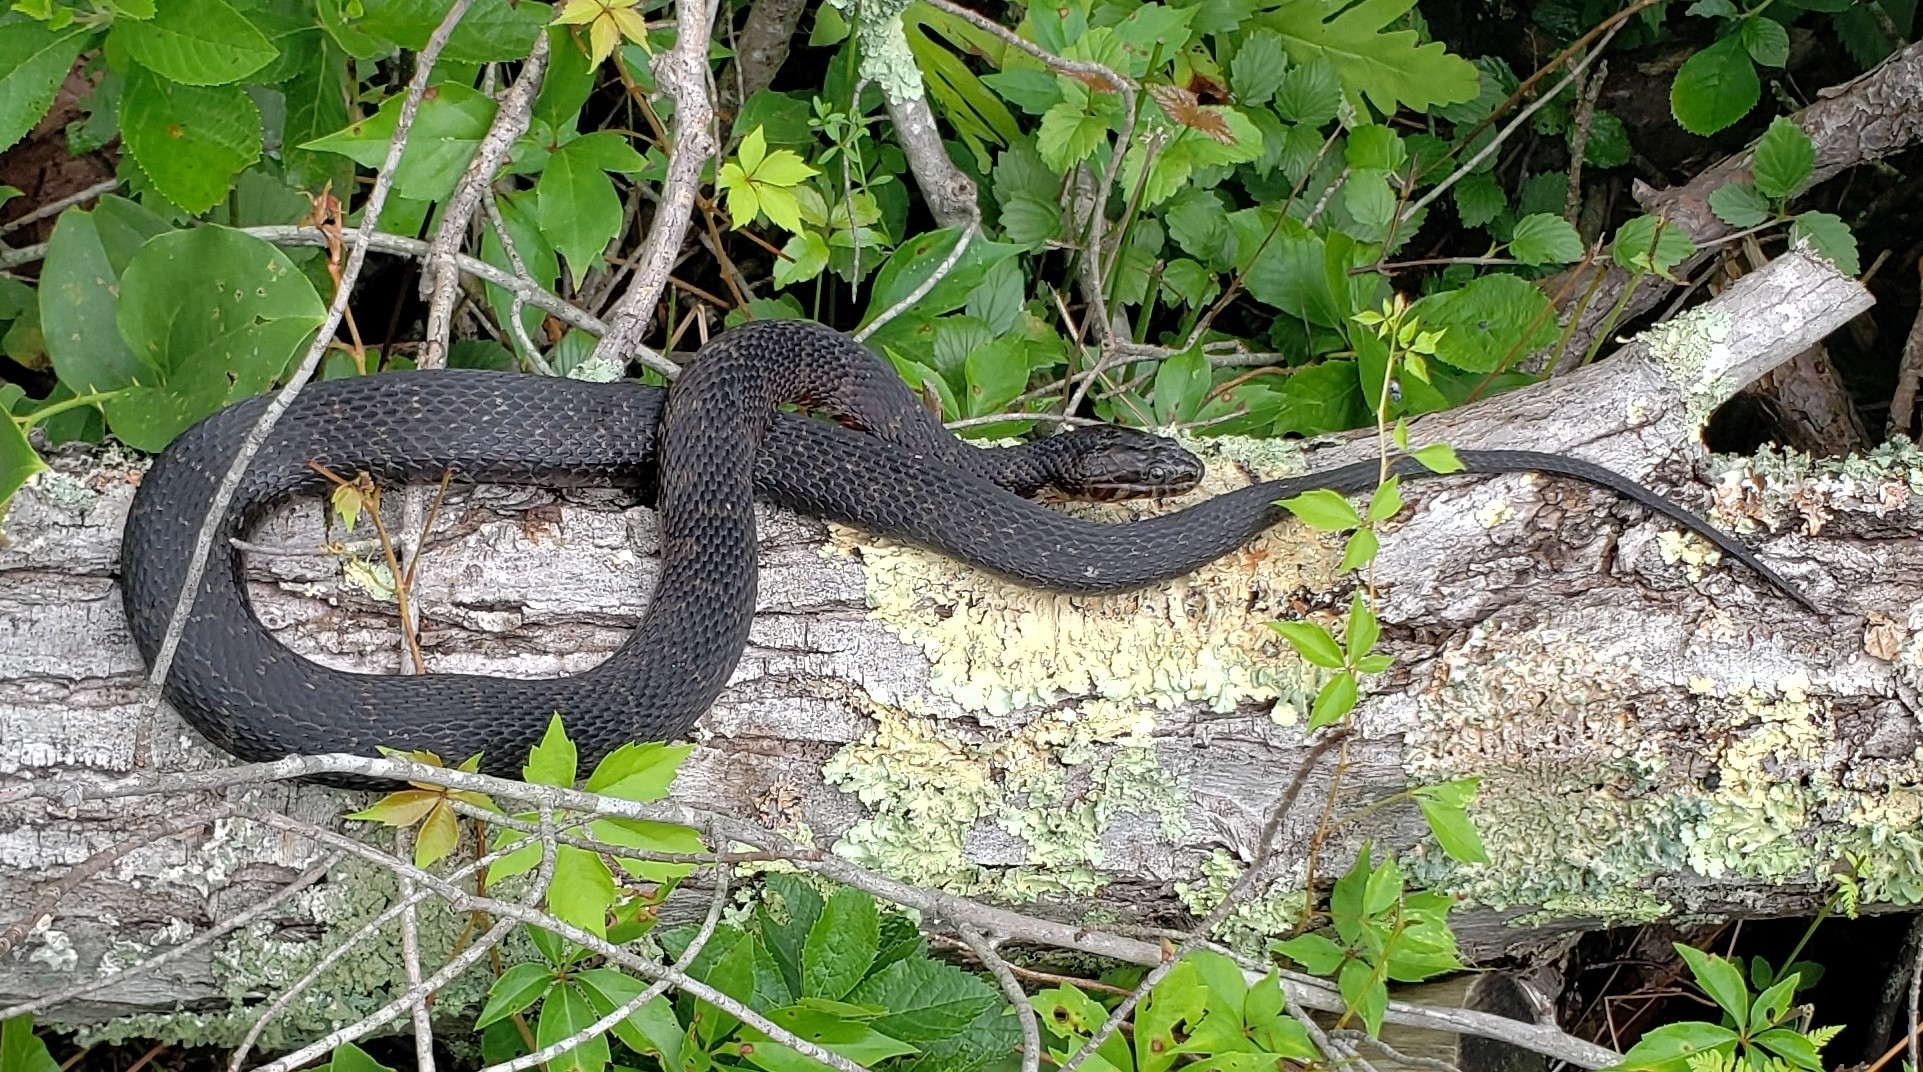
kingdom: Animalia
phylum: Chordata
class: Squamata
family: Colubridae
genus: Nerodia
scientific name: Nerodia sipedon
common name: Northern water snake
